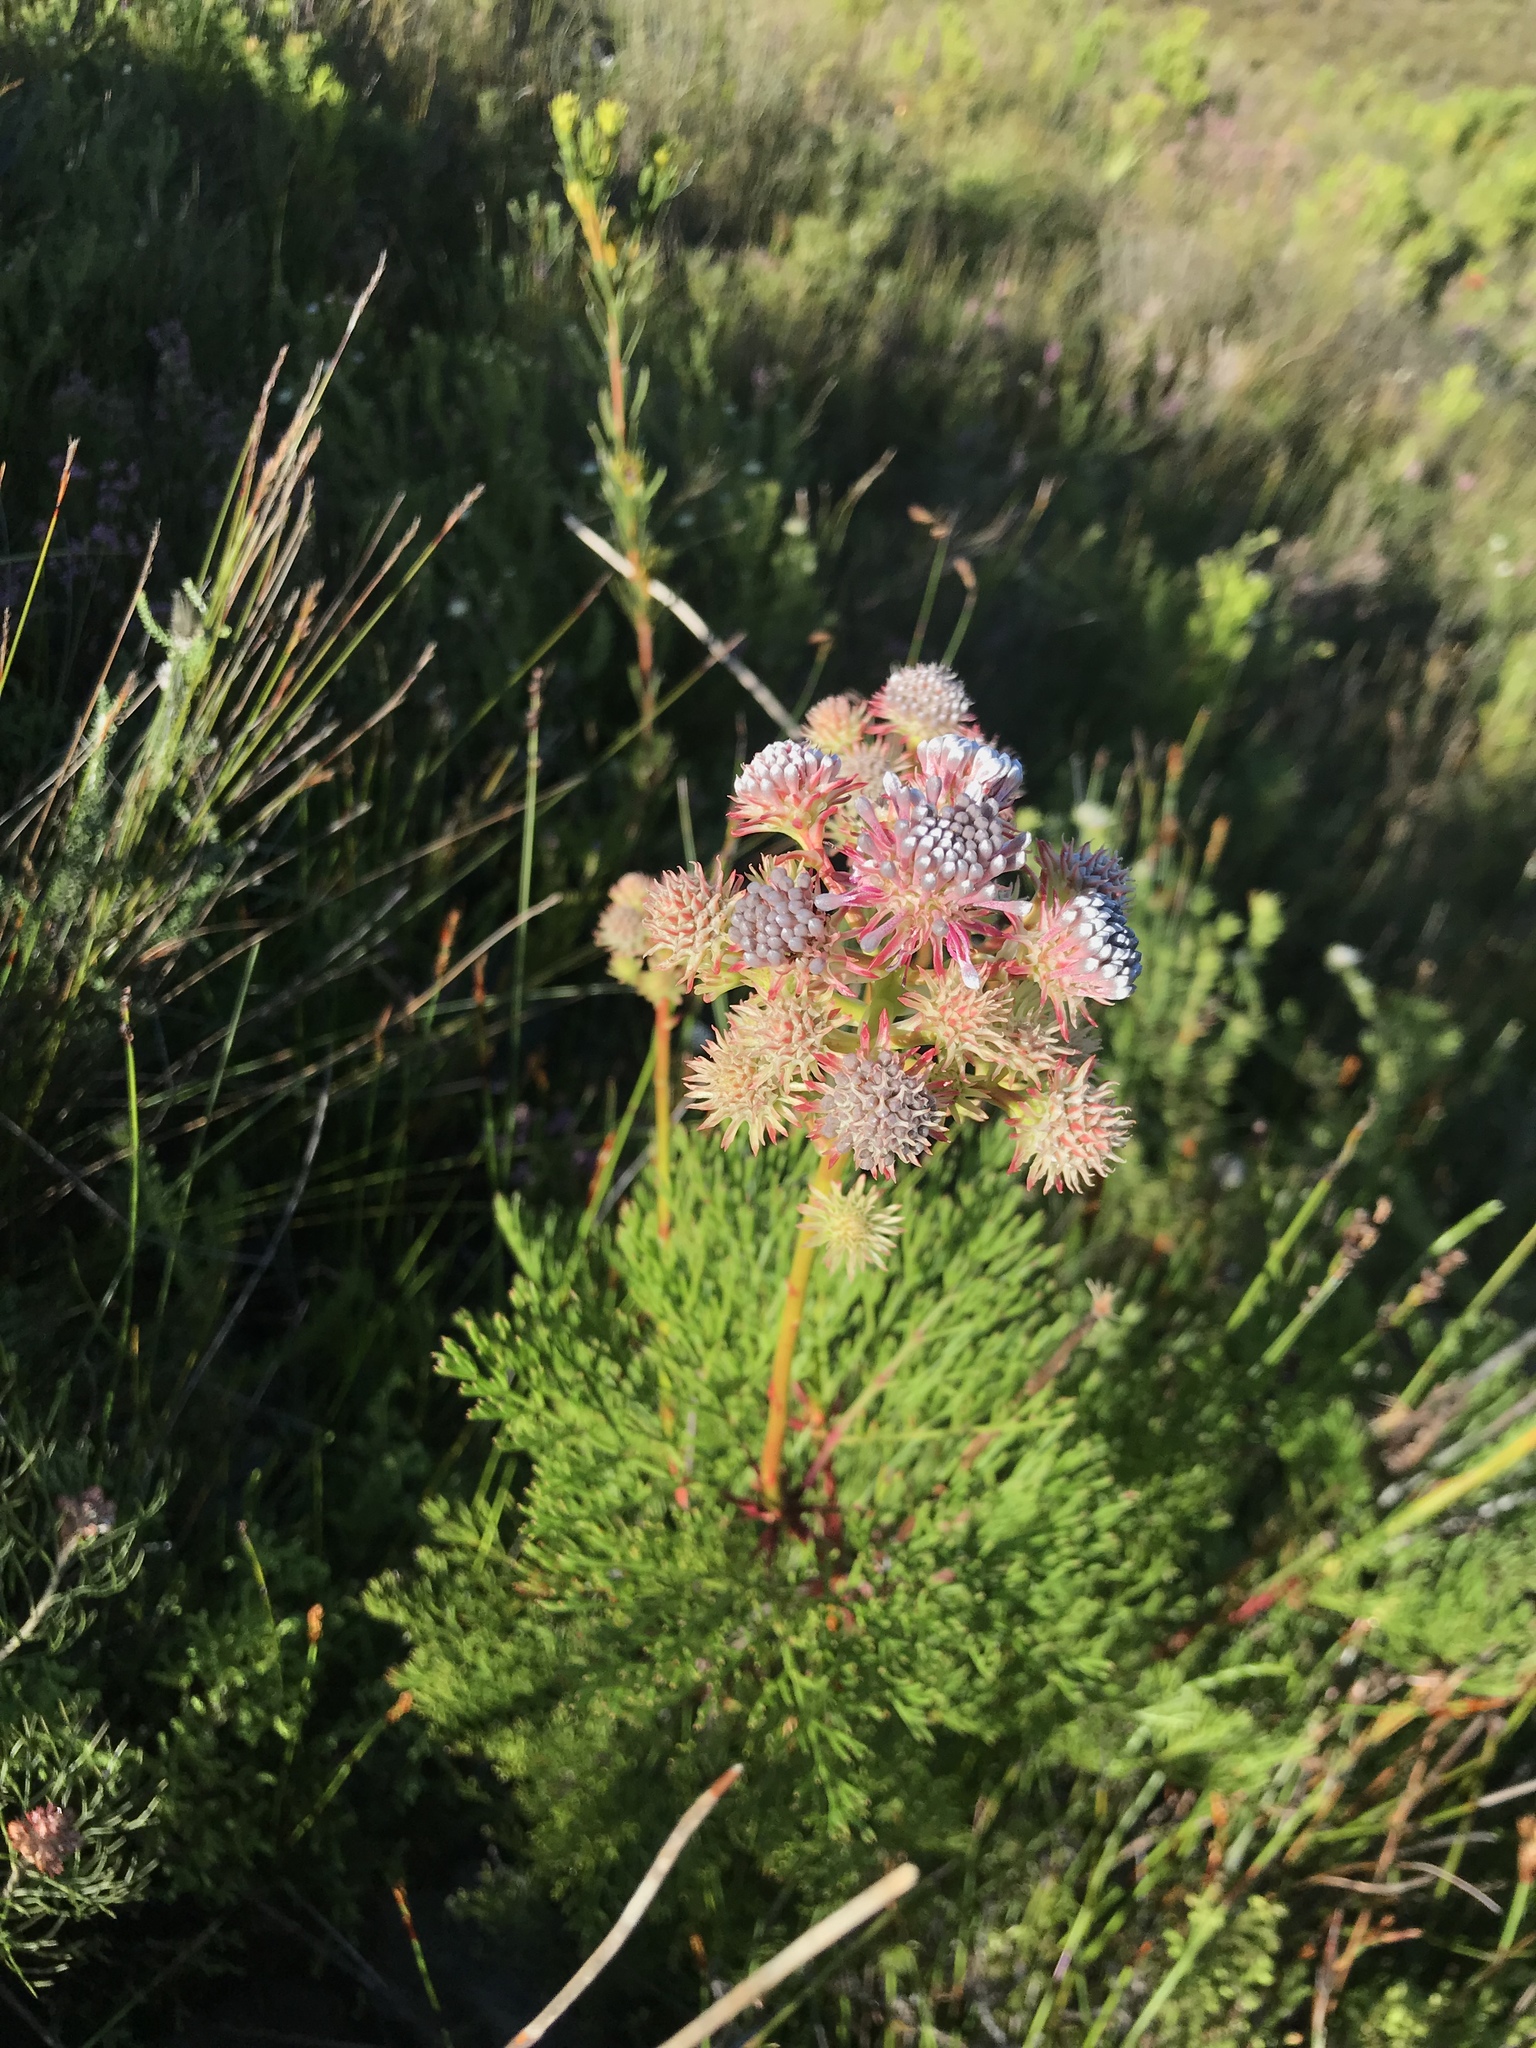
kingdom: Plantae
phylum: Tracheophyta
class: Magnoliopsida
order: Proteales
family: Proteaceae
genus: Serruria
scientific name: Serruria elongata
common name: Long-stalk spiderhead
